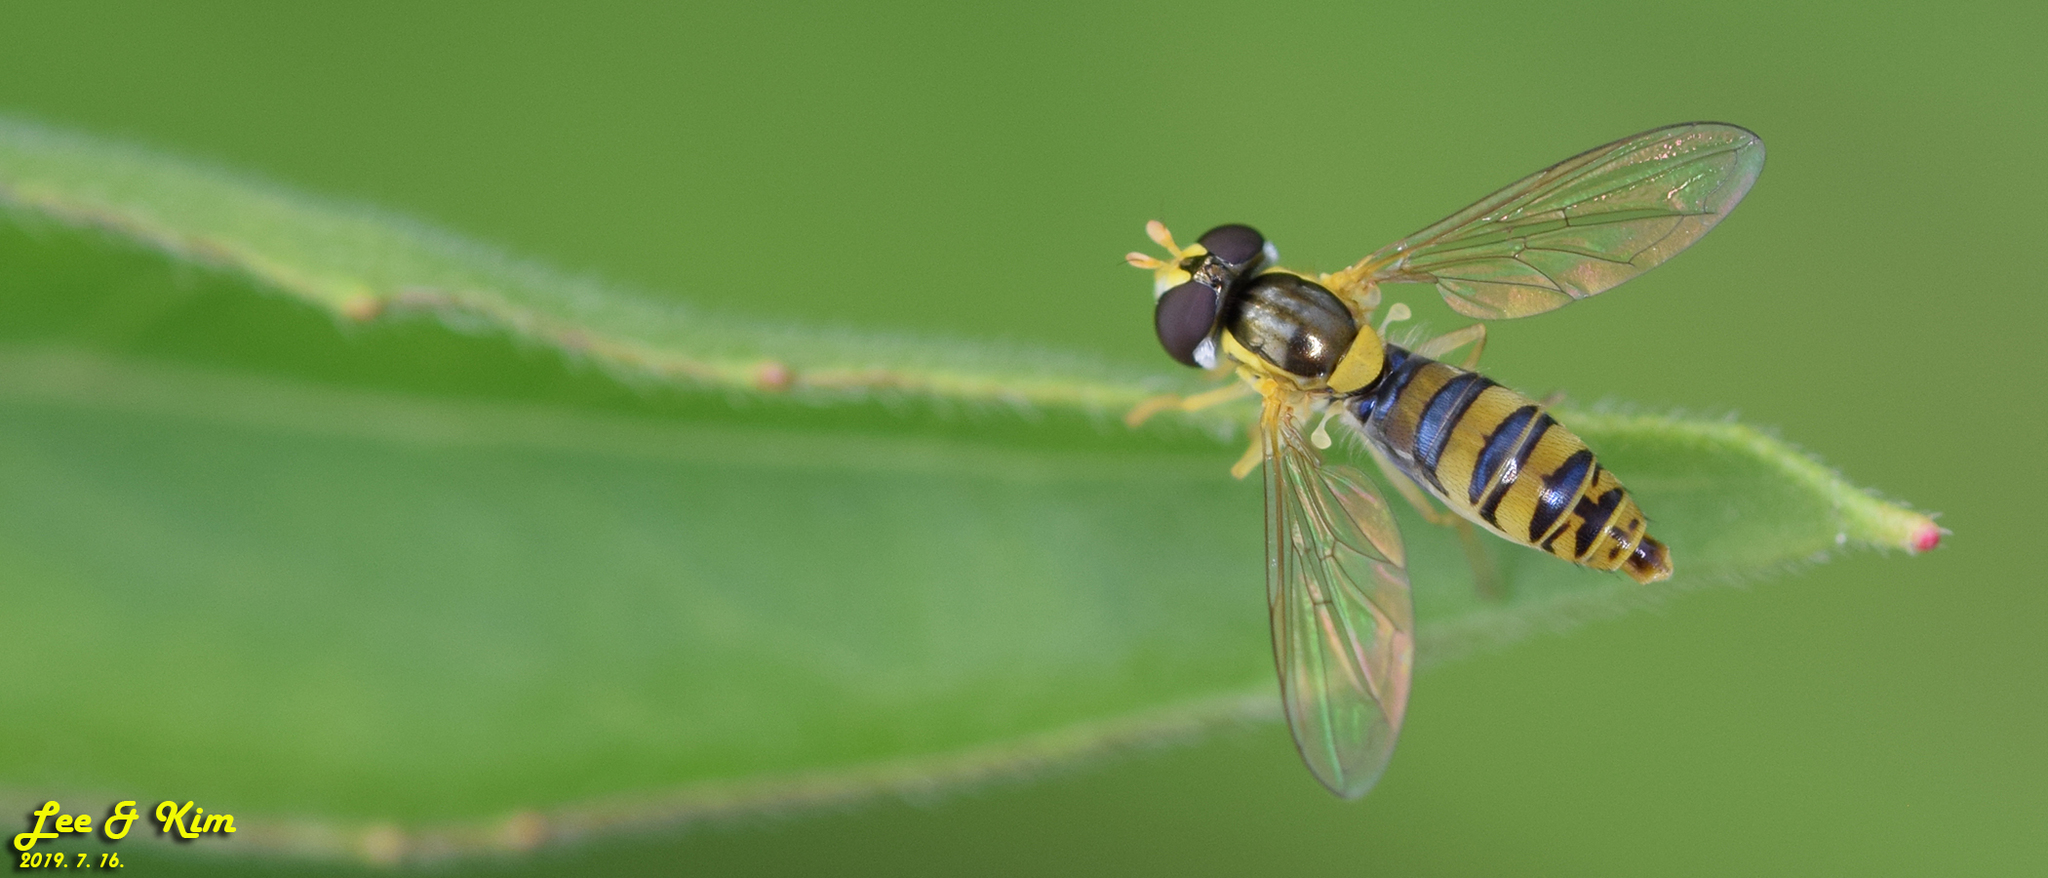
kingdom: Animalia
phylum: Arthropoda
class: Insecta
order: Diptera
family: Syrphidae
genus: Sphaerophoria
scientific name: Sphaerophoria scripta
